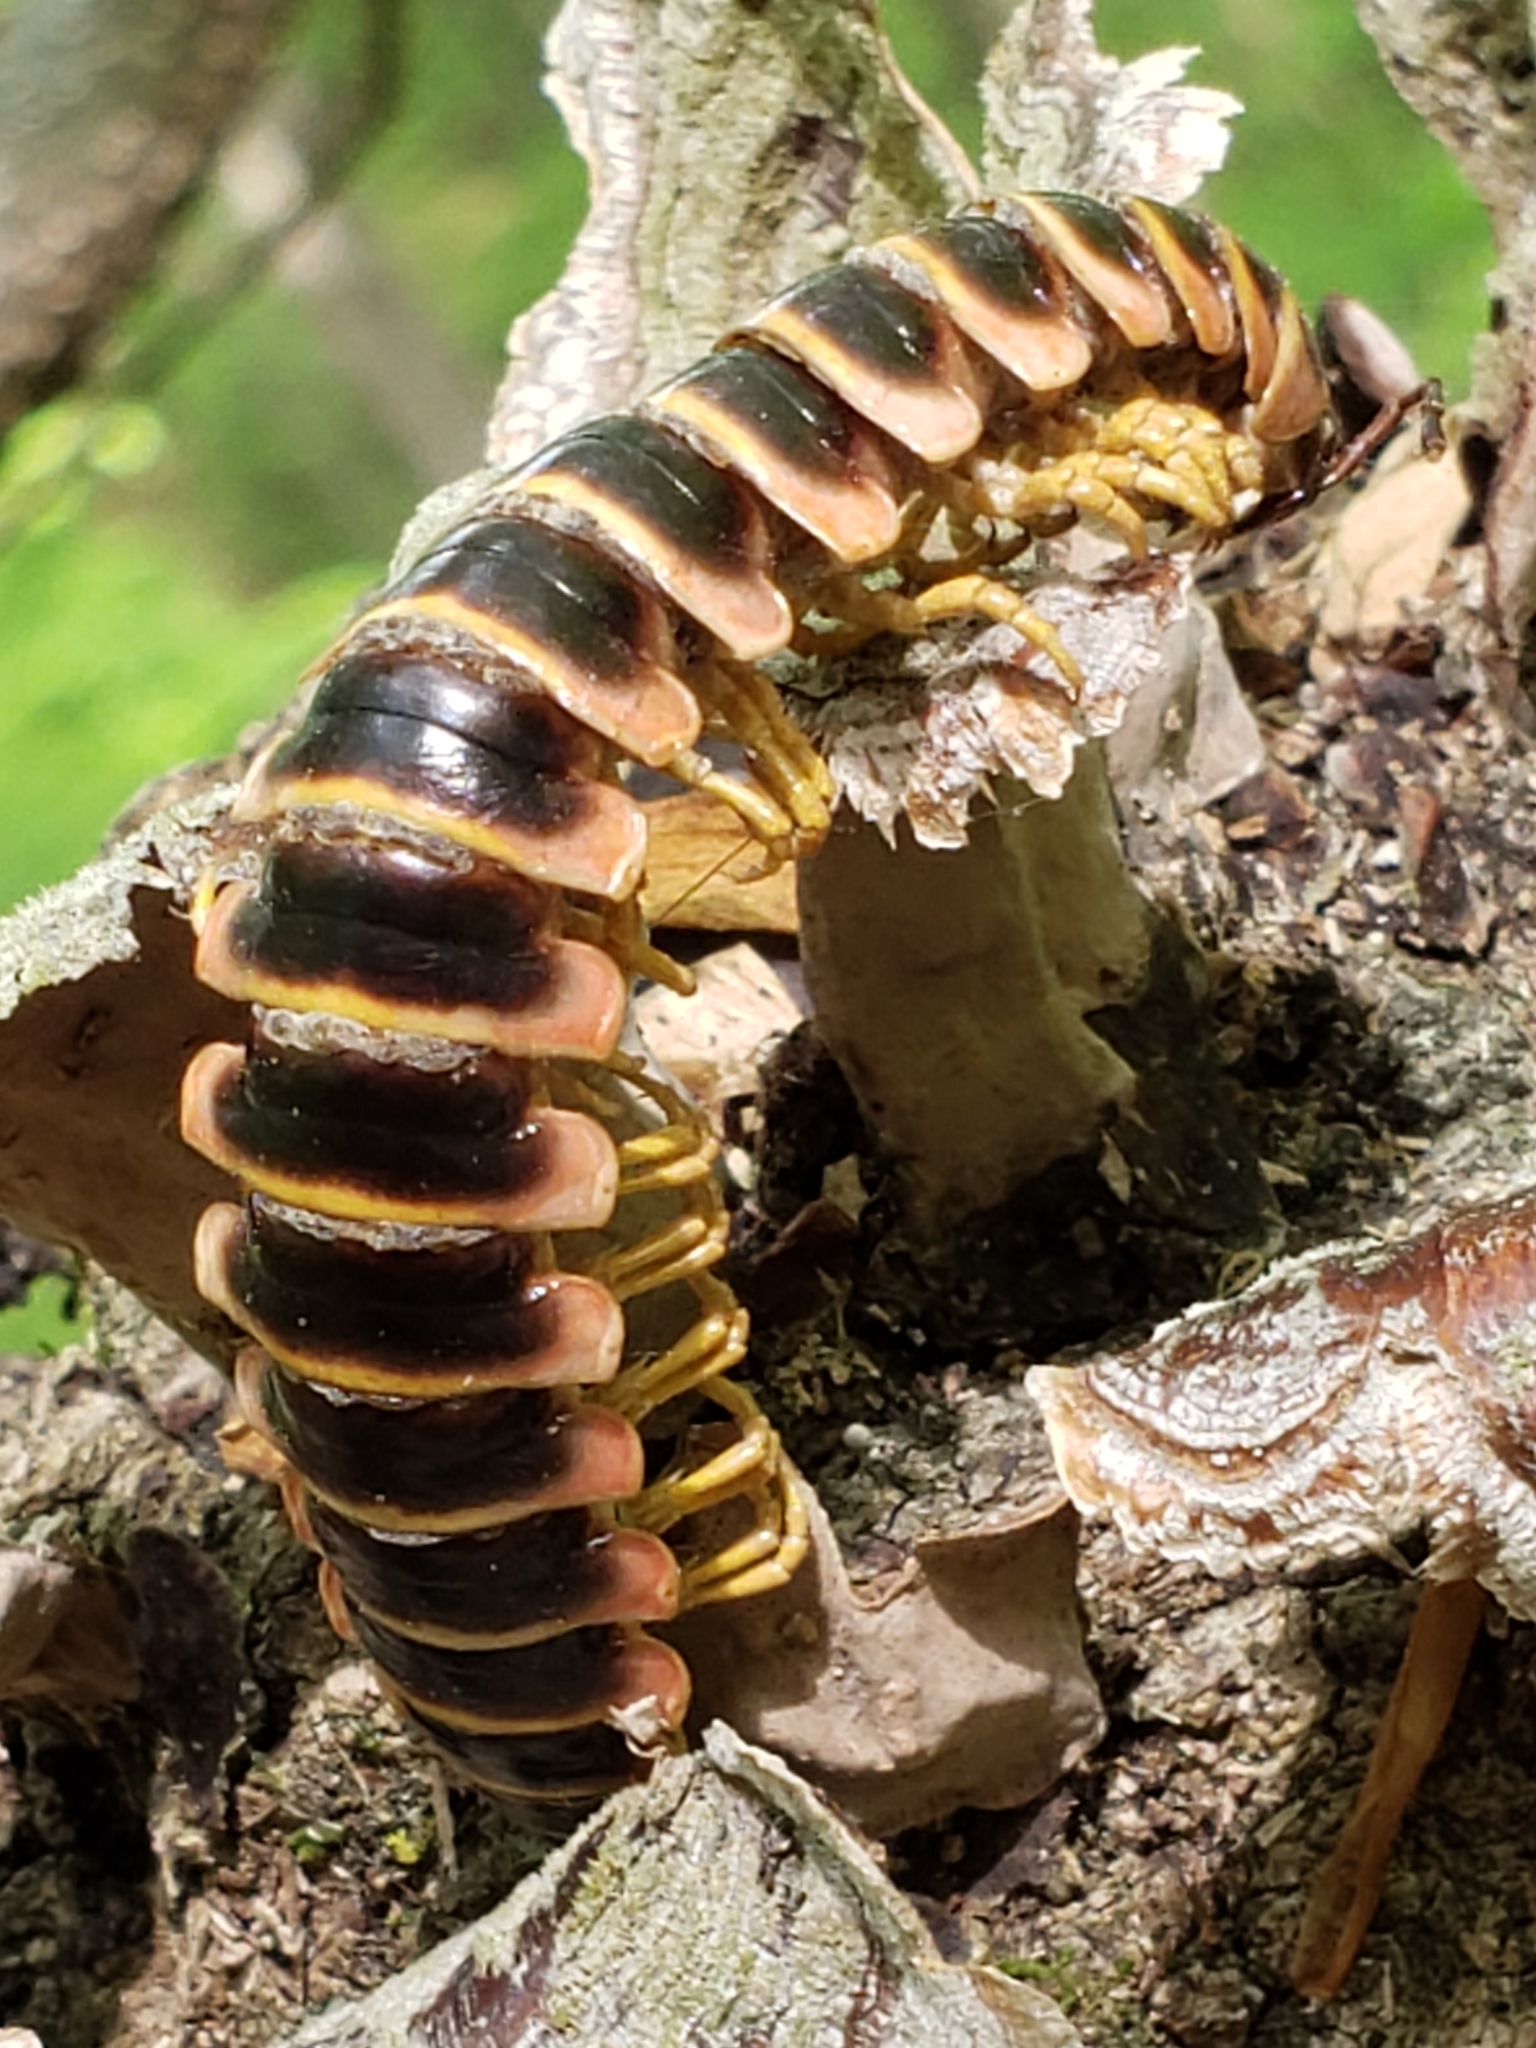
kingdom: Fungi
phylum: Entomophthoromycota
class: Entomophthoromycetes
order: Entomophthorales
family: Entomophthoraceae
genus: Arthrophaga
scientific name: Arthrophaga myriapodina
